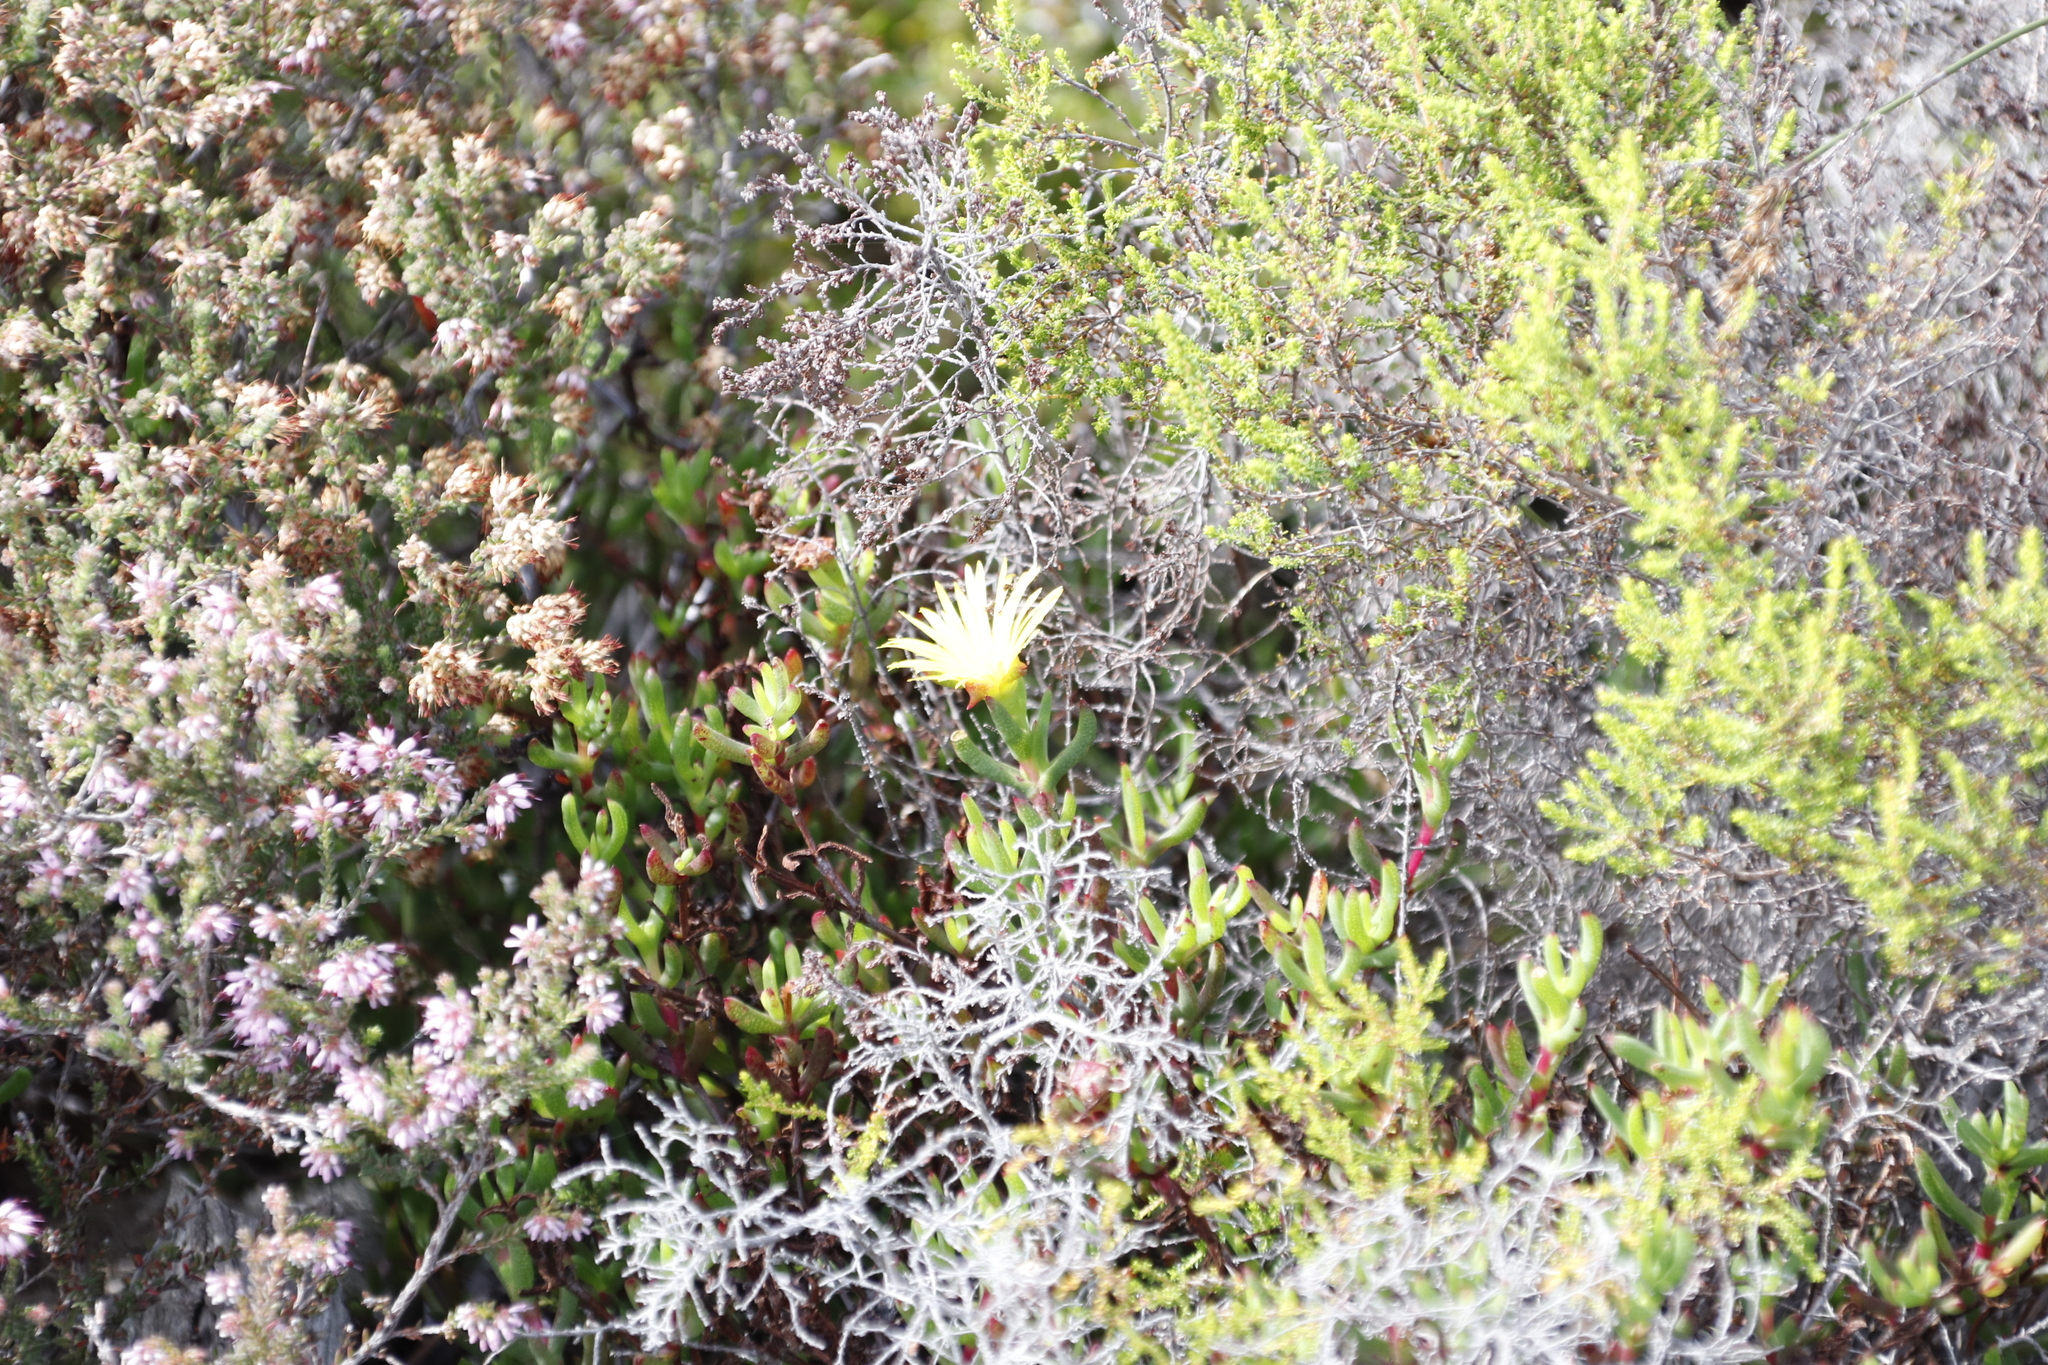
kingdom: Plantae
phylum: Tracheophyta
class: Magnoliopsida
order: Caryophyllales
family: Aizoaceae
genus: Lampranthus
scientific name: Lampranthus promontorii
